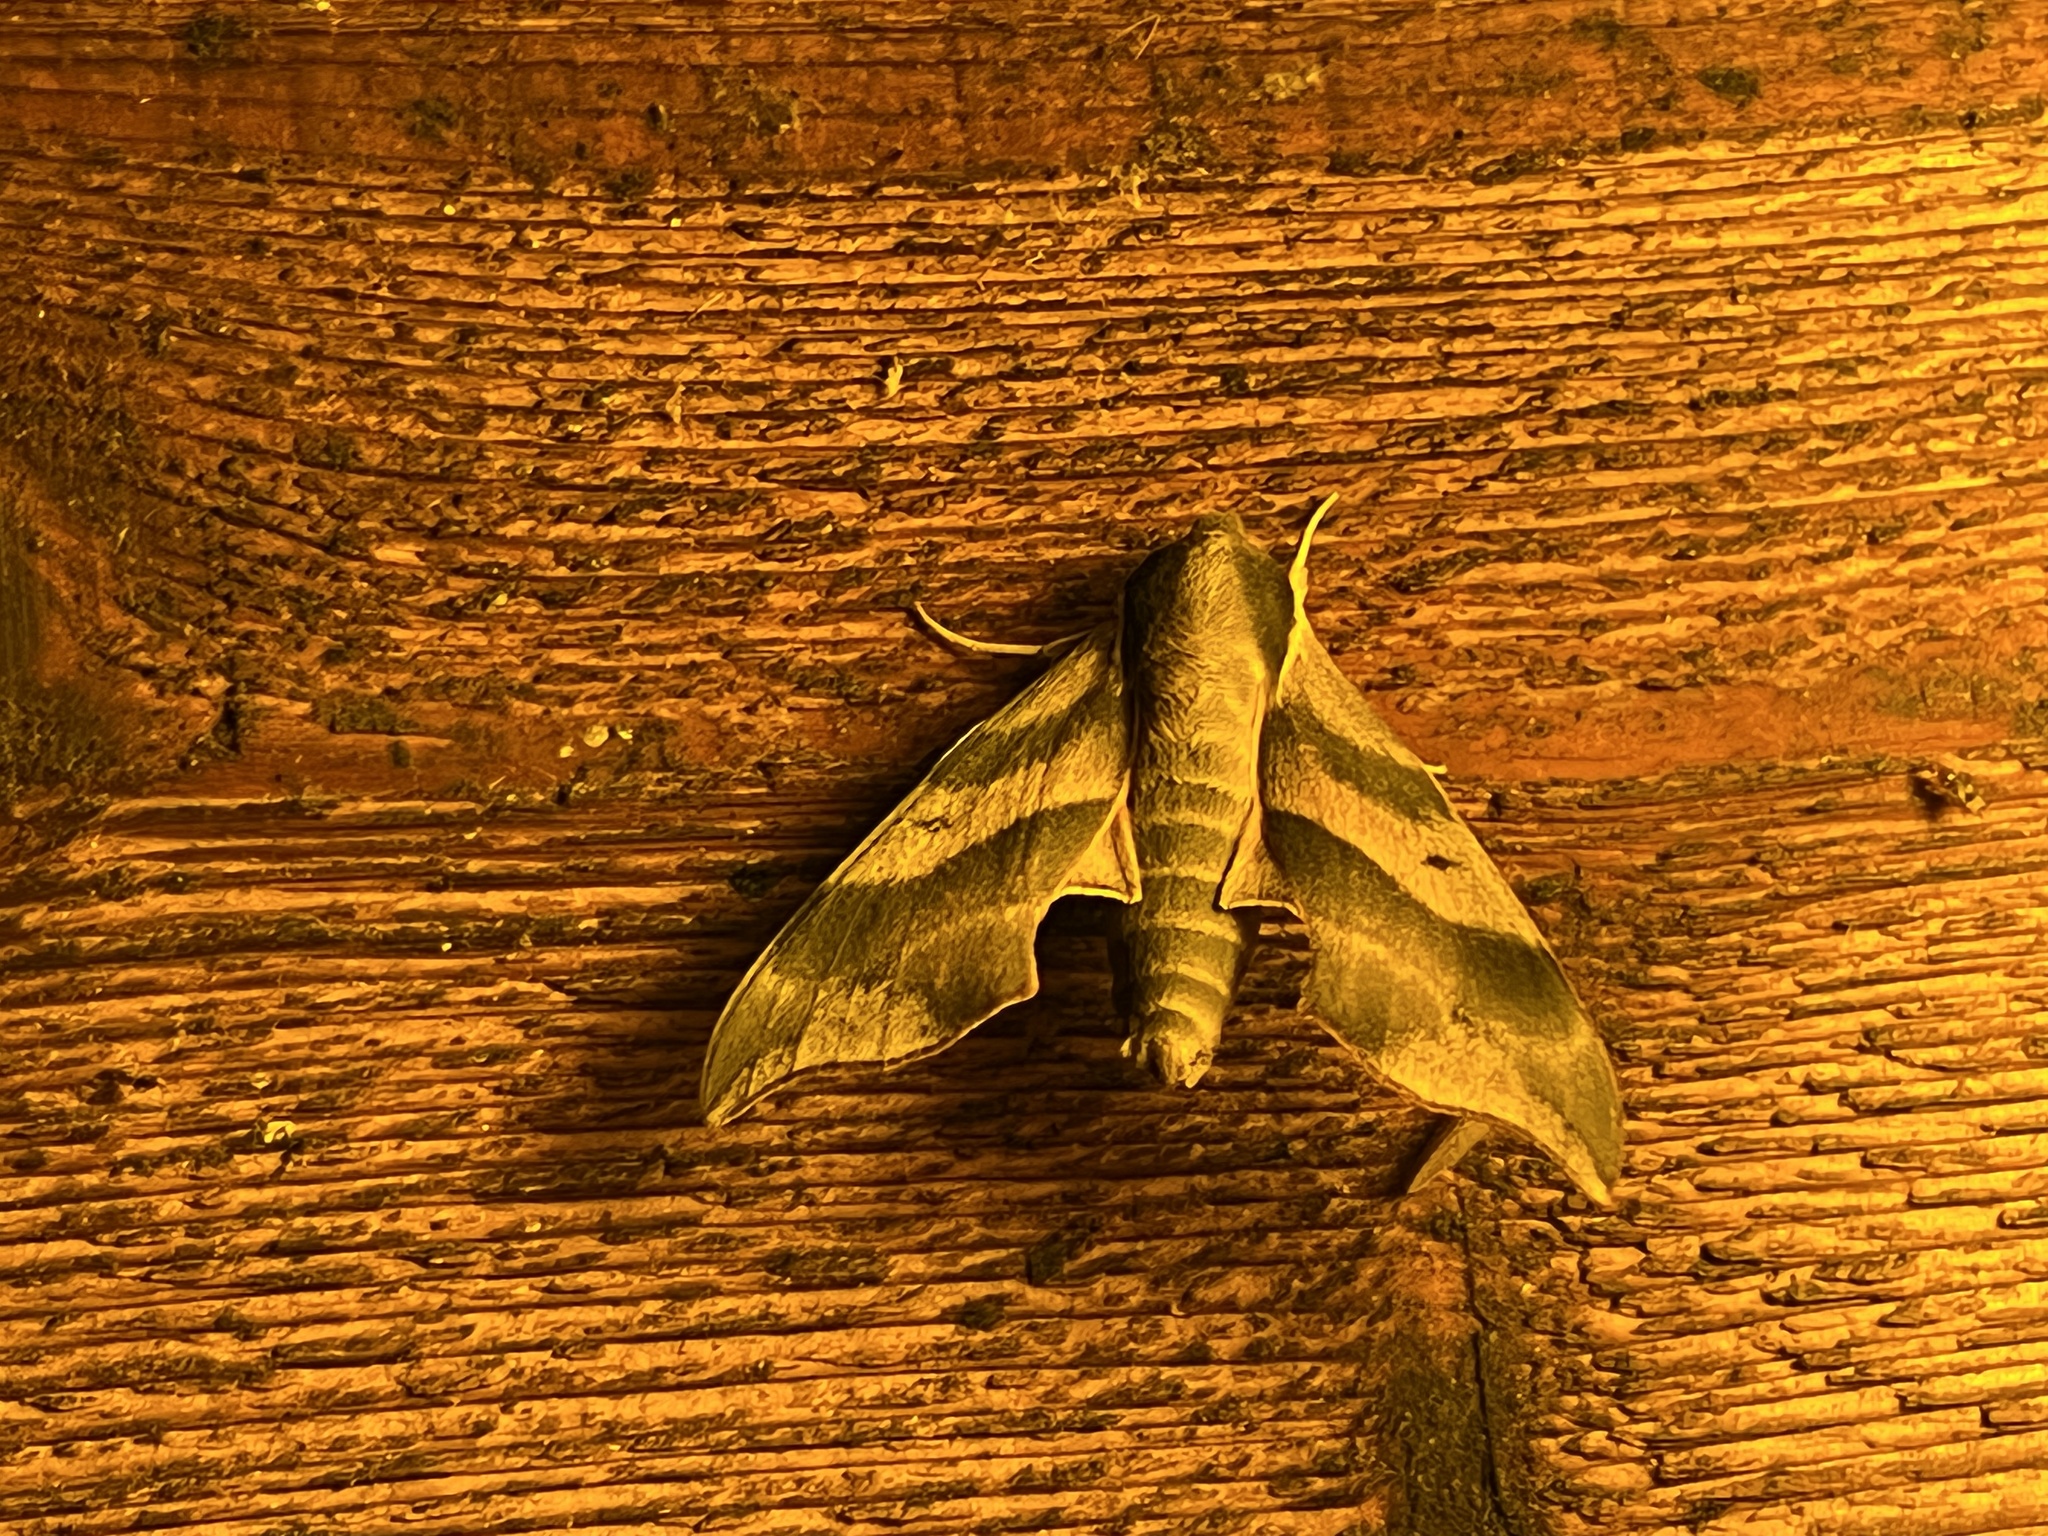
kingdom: Animalia
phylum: Arthropoda
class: Insecta
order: Lepidoptera
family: Sphingidae
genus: Darapsa
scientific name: Darapsa myron
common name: Hog sphinx
